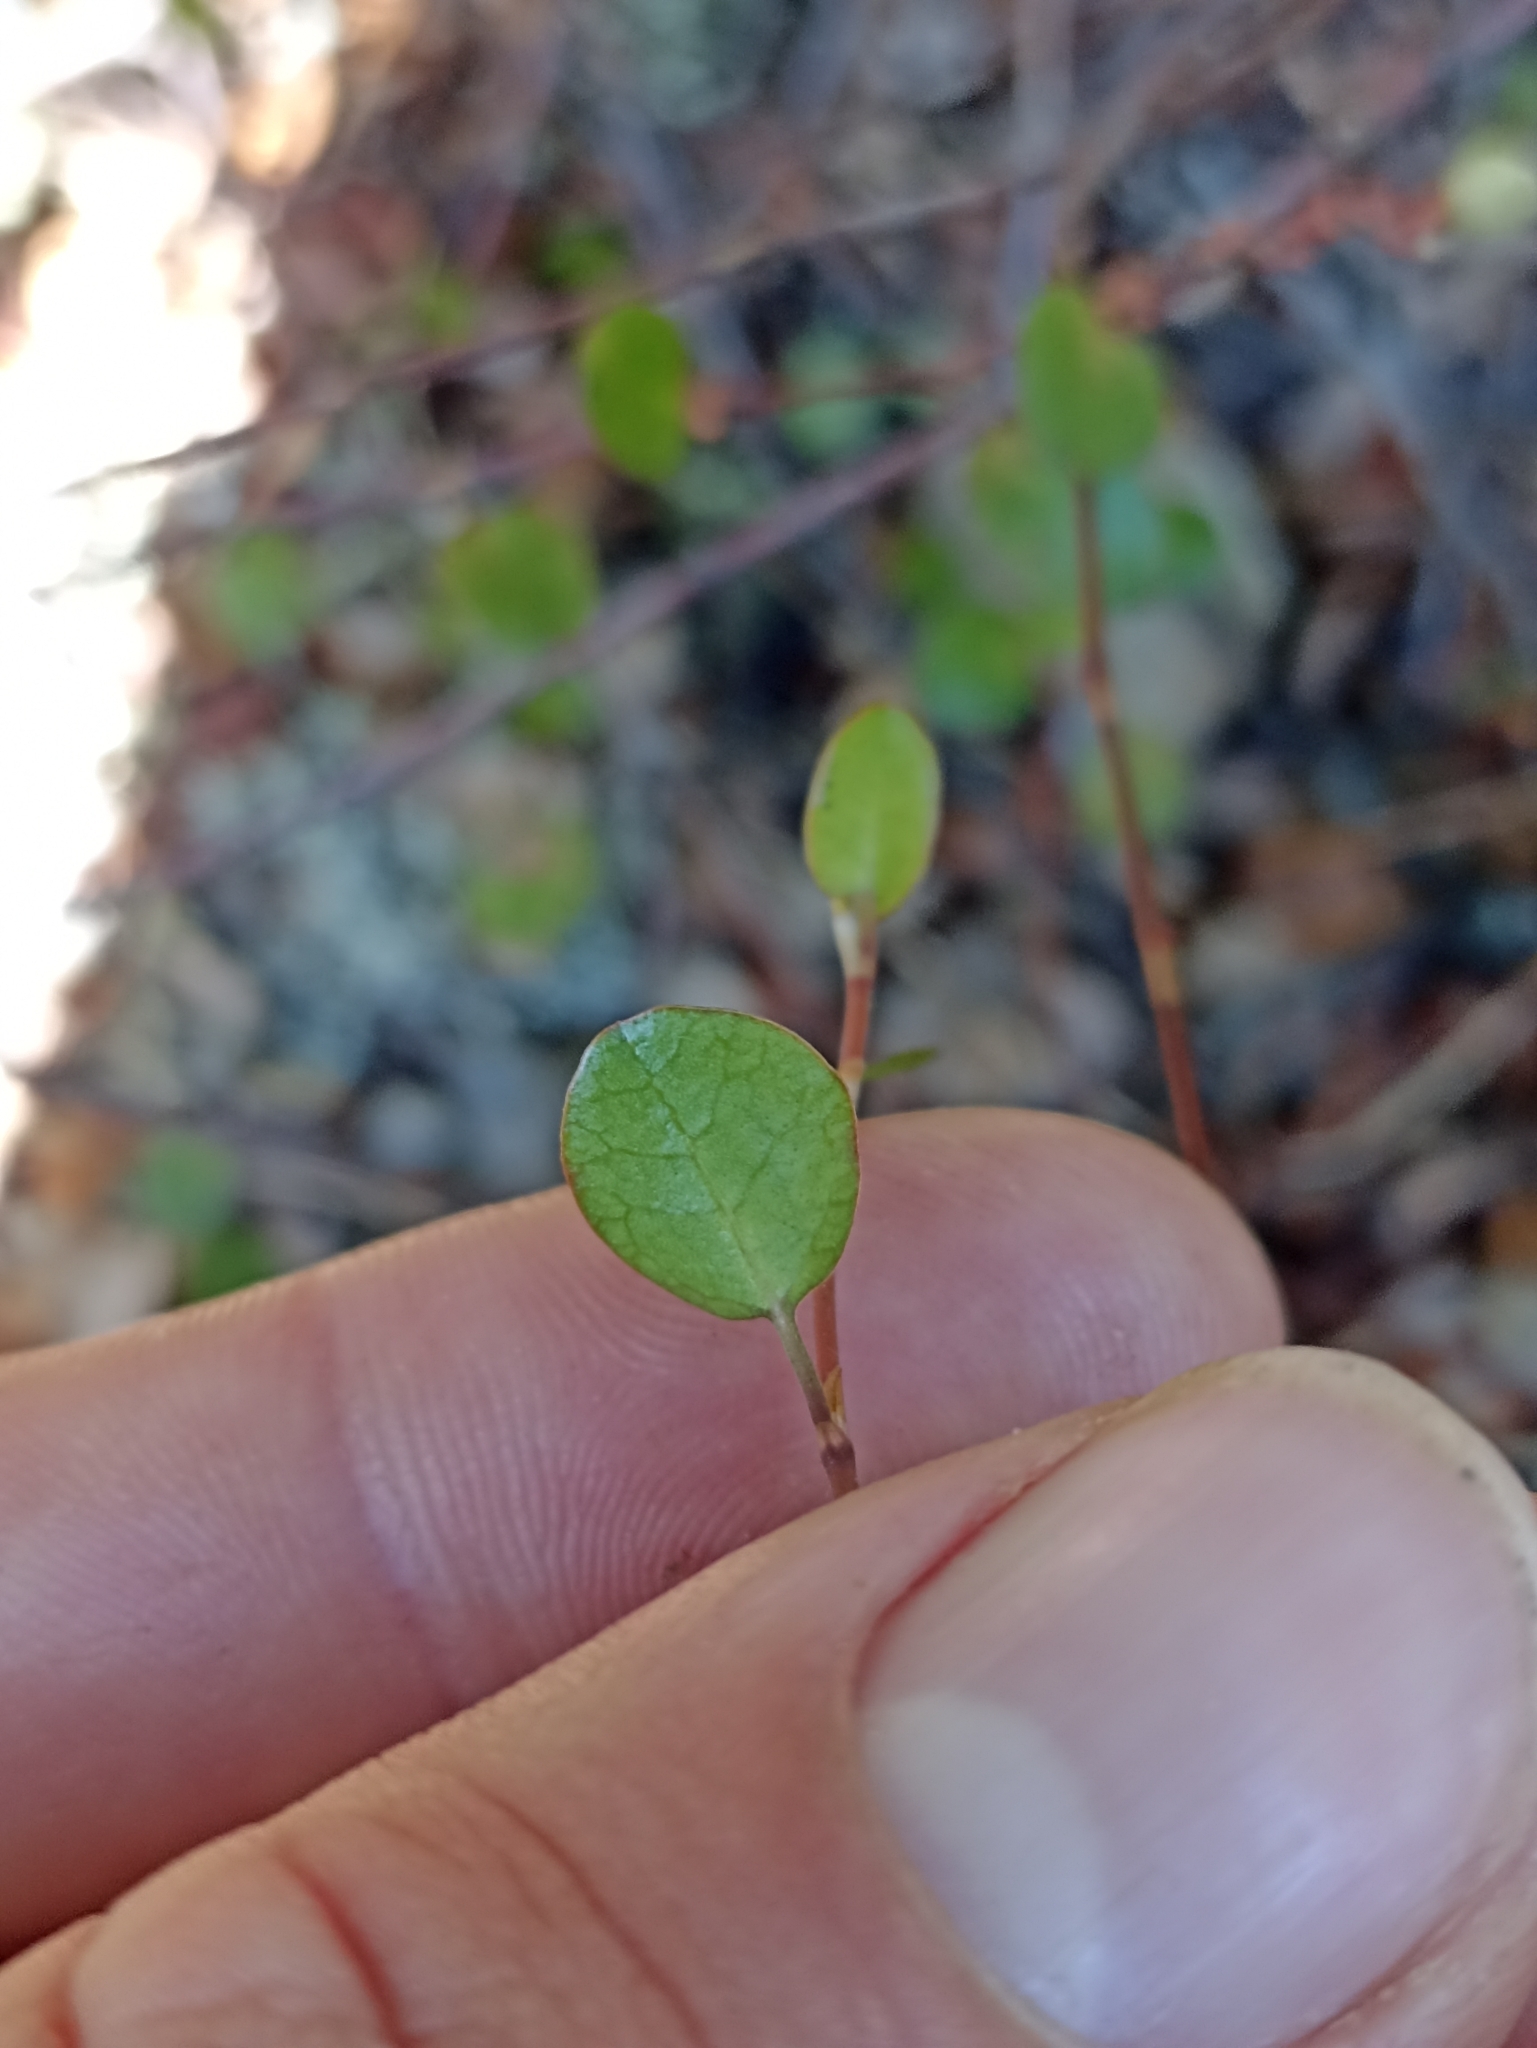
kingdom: Plantae
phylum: Tracheophyta
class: Magnoliopsida
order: Caryophyllales
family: Polygonaceae
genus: Muehlenbeckia
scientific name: Muehlenbeckia complexa
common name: Wireplant
